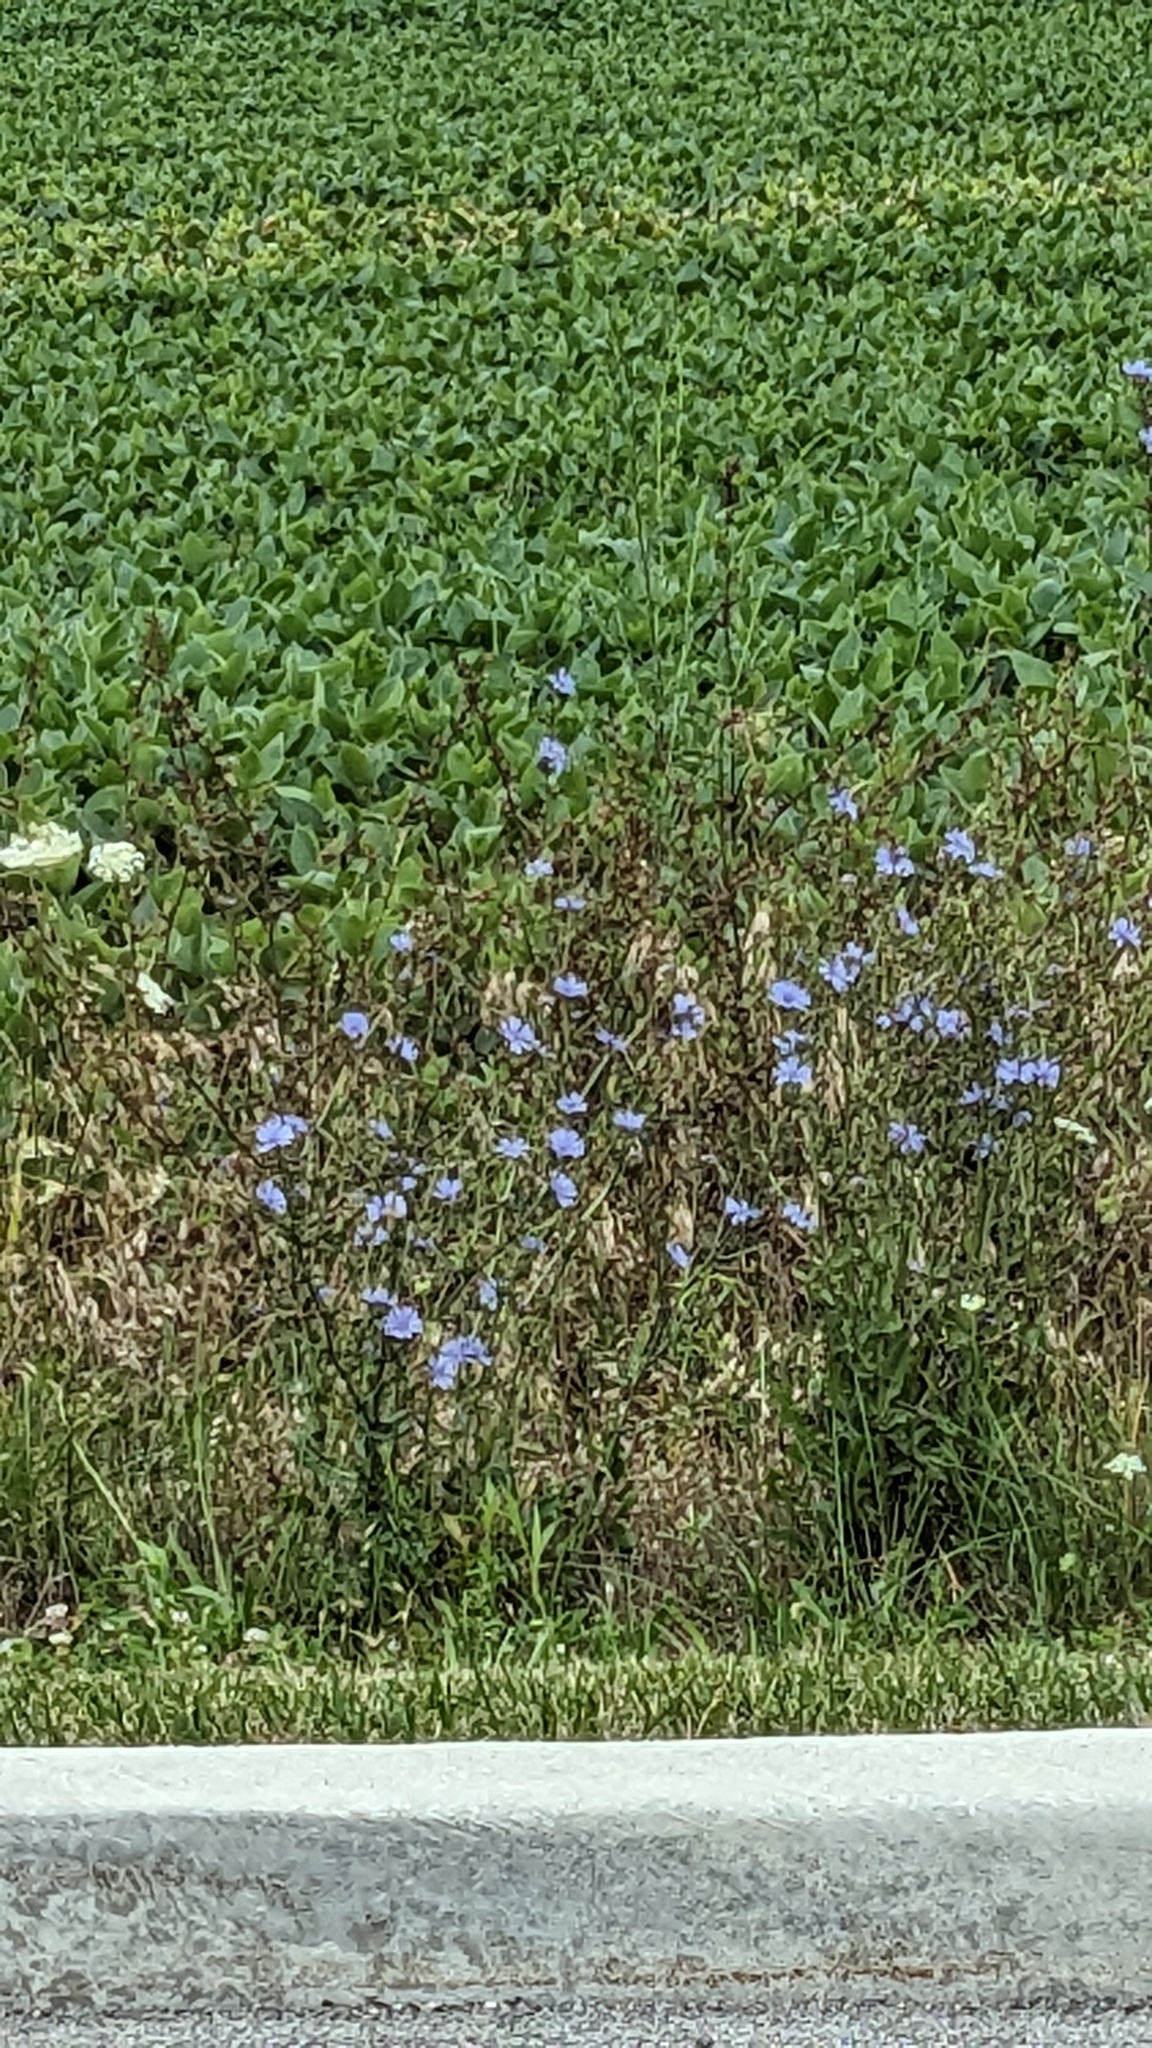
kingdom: Plantae
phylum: Tracheophyta
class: Magnoliopsida
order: Asterales
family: Asteraceae
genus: Cichorium
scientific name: Cichorium intybus
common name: Chicory
